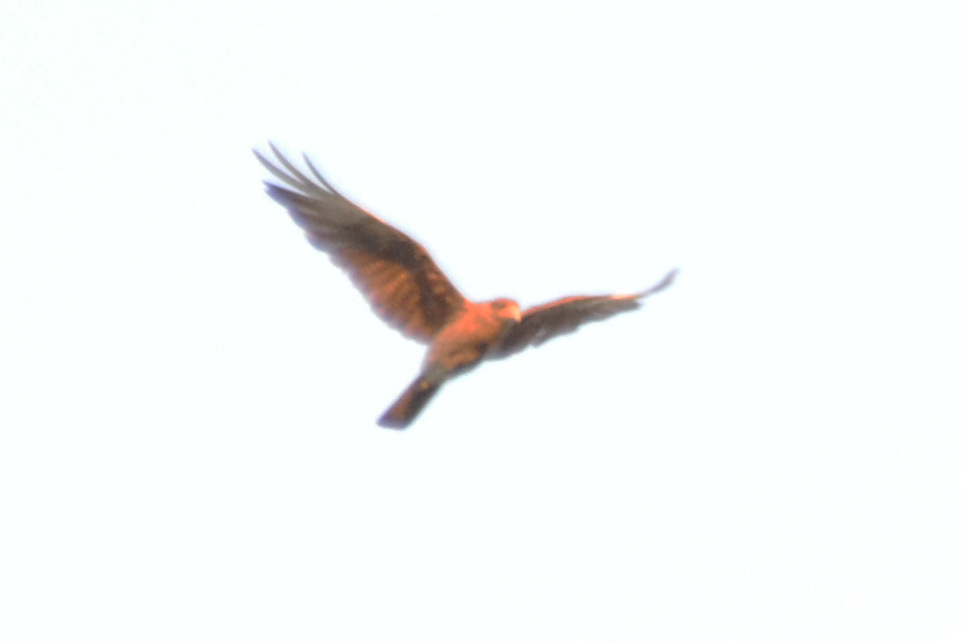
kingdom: Animalia
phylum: Chordata
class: Aves
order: Falconiformes
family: Falconidae
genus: Daptrius
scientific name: Daptrius
